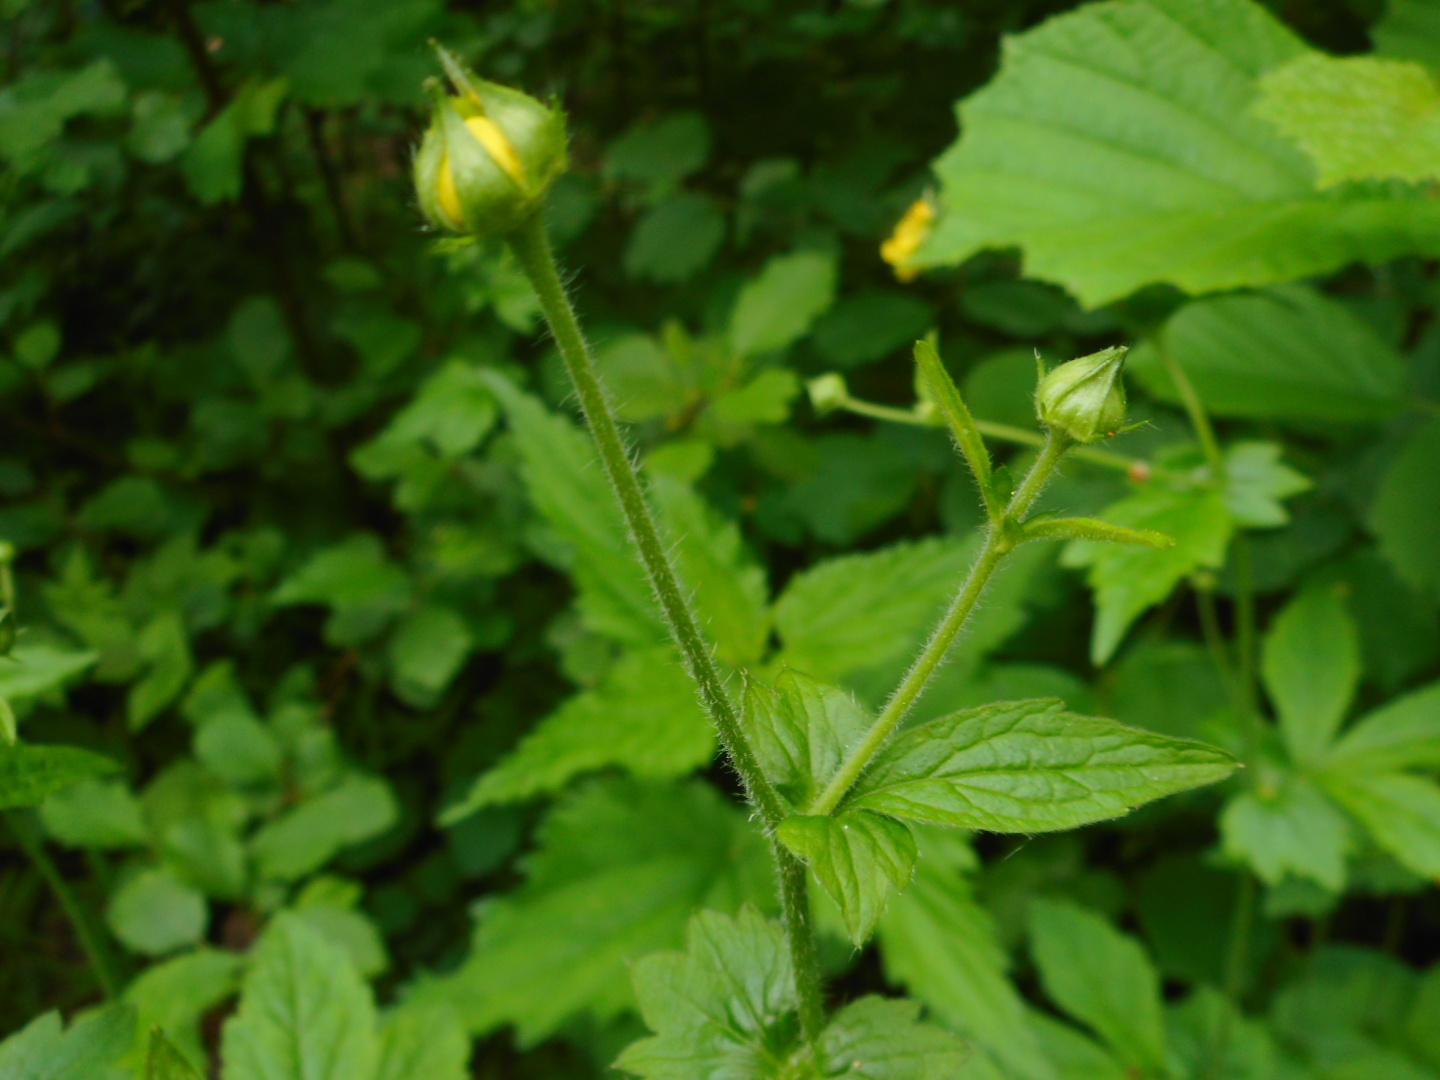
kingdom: Plantae
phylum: Tracheophyta
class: Magnoliopsida
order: Rosales
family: Rosaceae
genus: Geum
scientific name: Geum urbanum
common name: Wood avens
